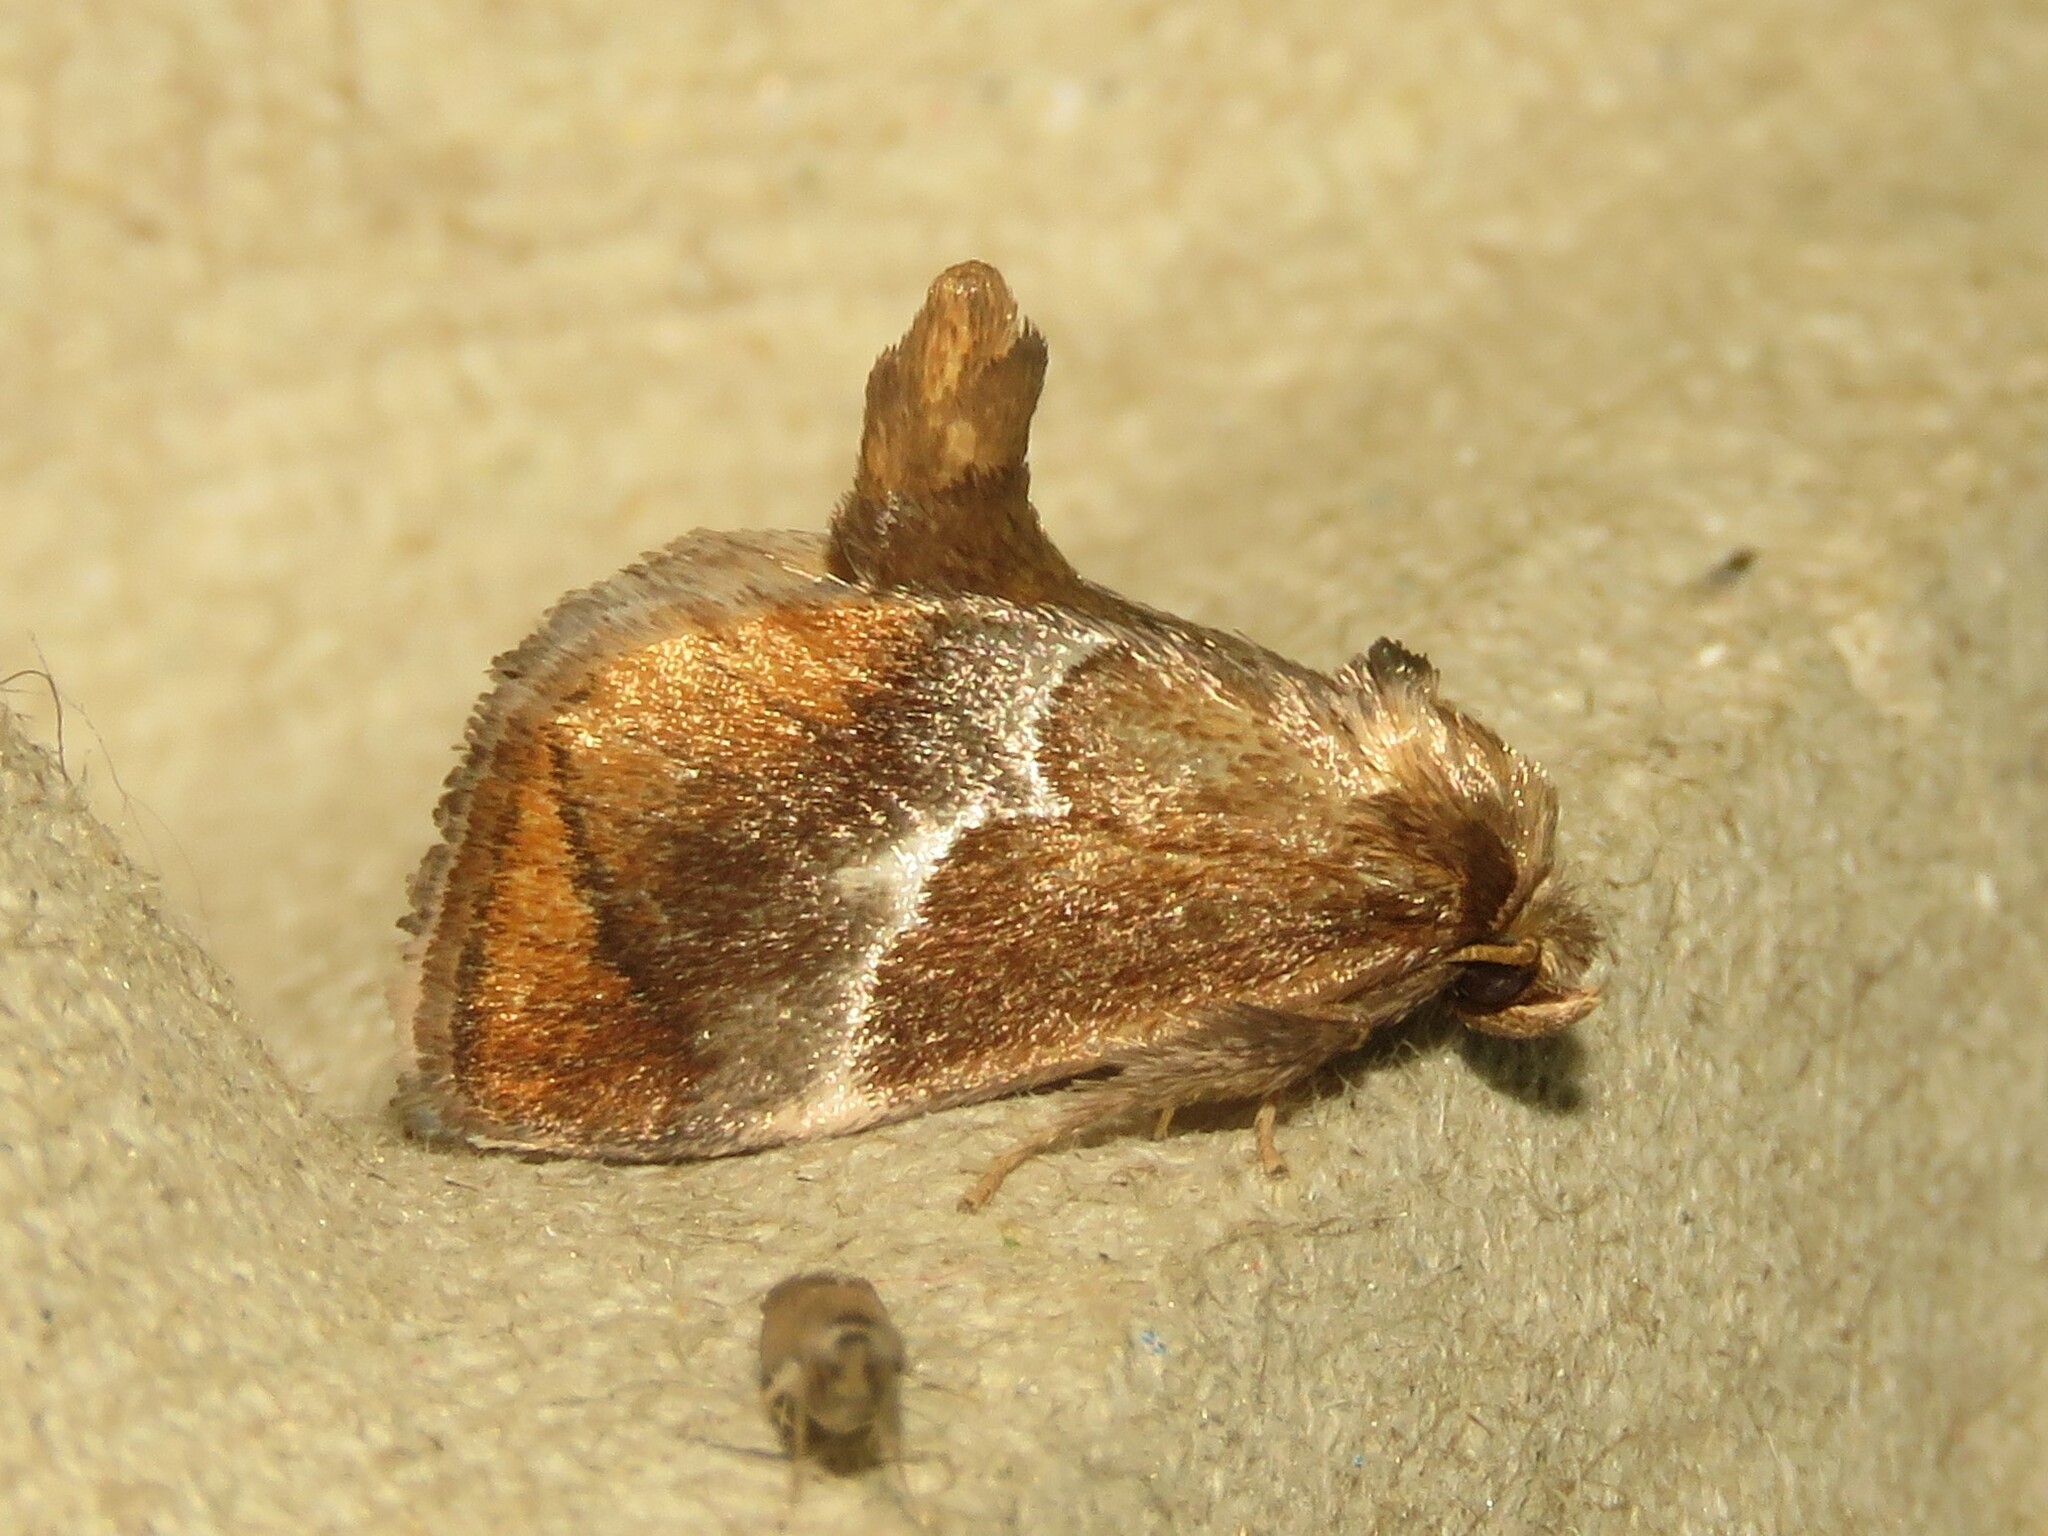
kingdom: Animalia
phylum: Arthropoda
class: Insecta
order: Lepidoptera
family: Limacodidae
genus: Lithacodes
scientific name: Lithacodes fasciola
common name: Yellow-shouldered slug moth
